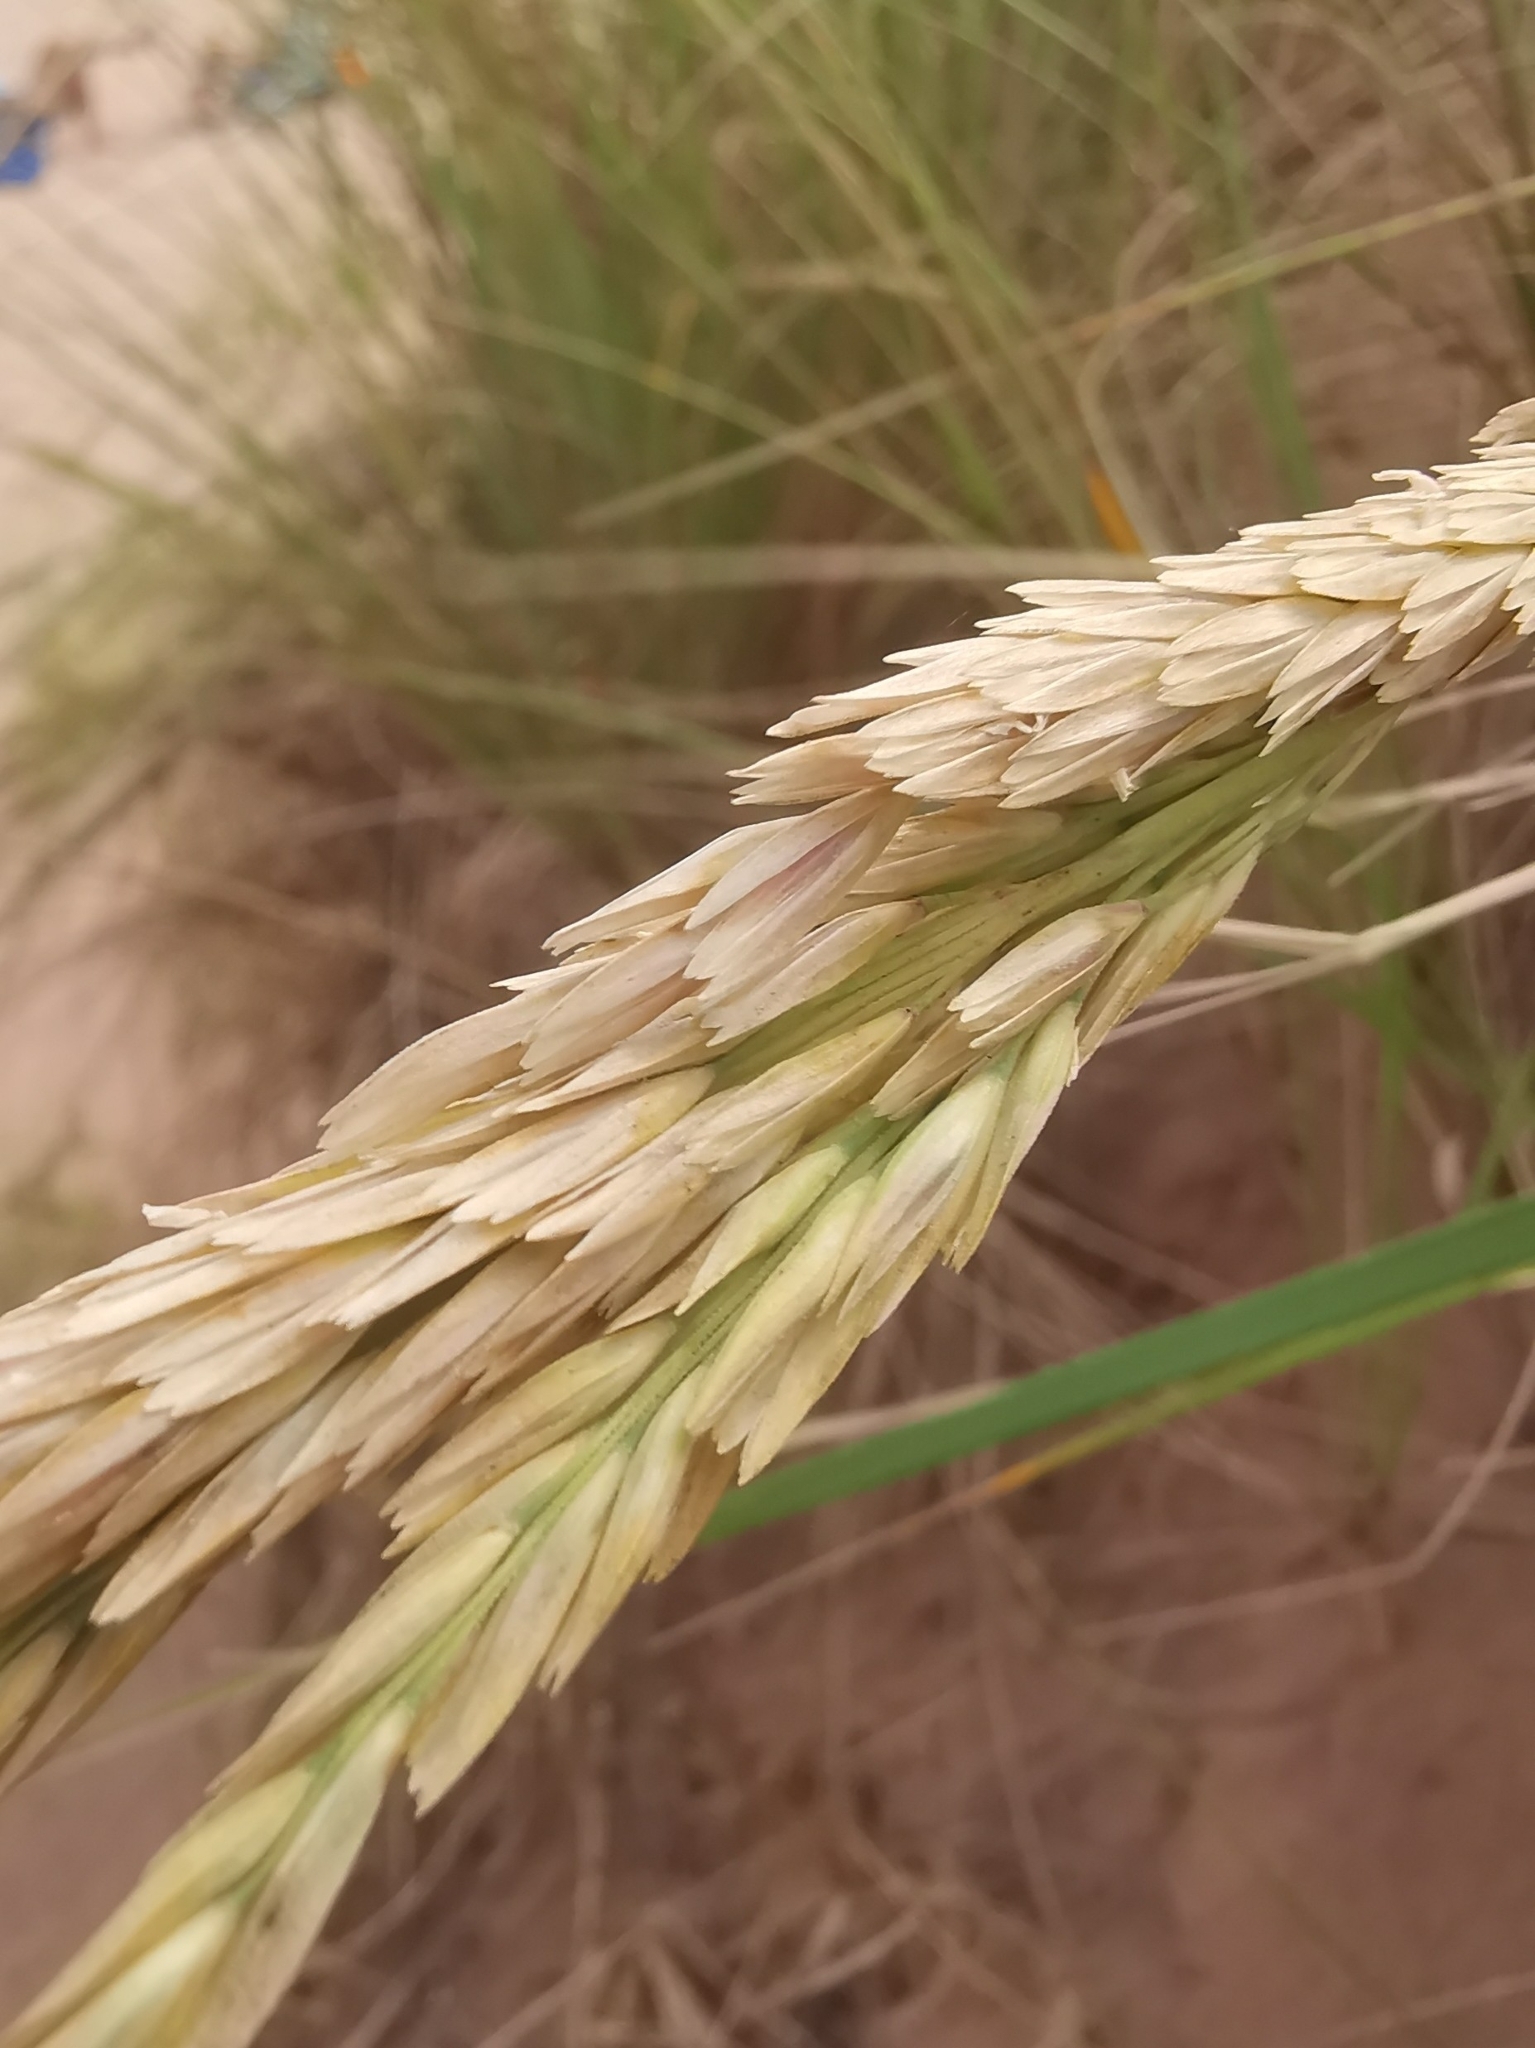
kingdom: Plantae
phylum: Tracheophyta
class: Liliopsida
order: Poales
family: Poaceae
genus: Calamagrostis
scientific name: Calamagrostis breviligulata
